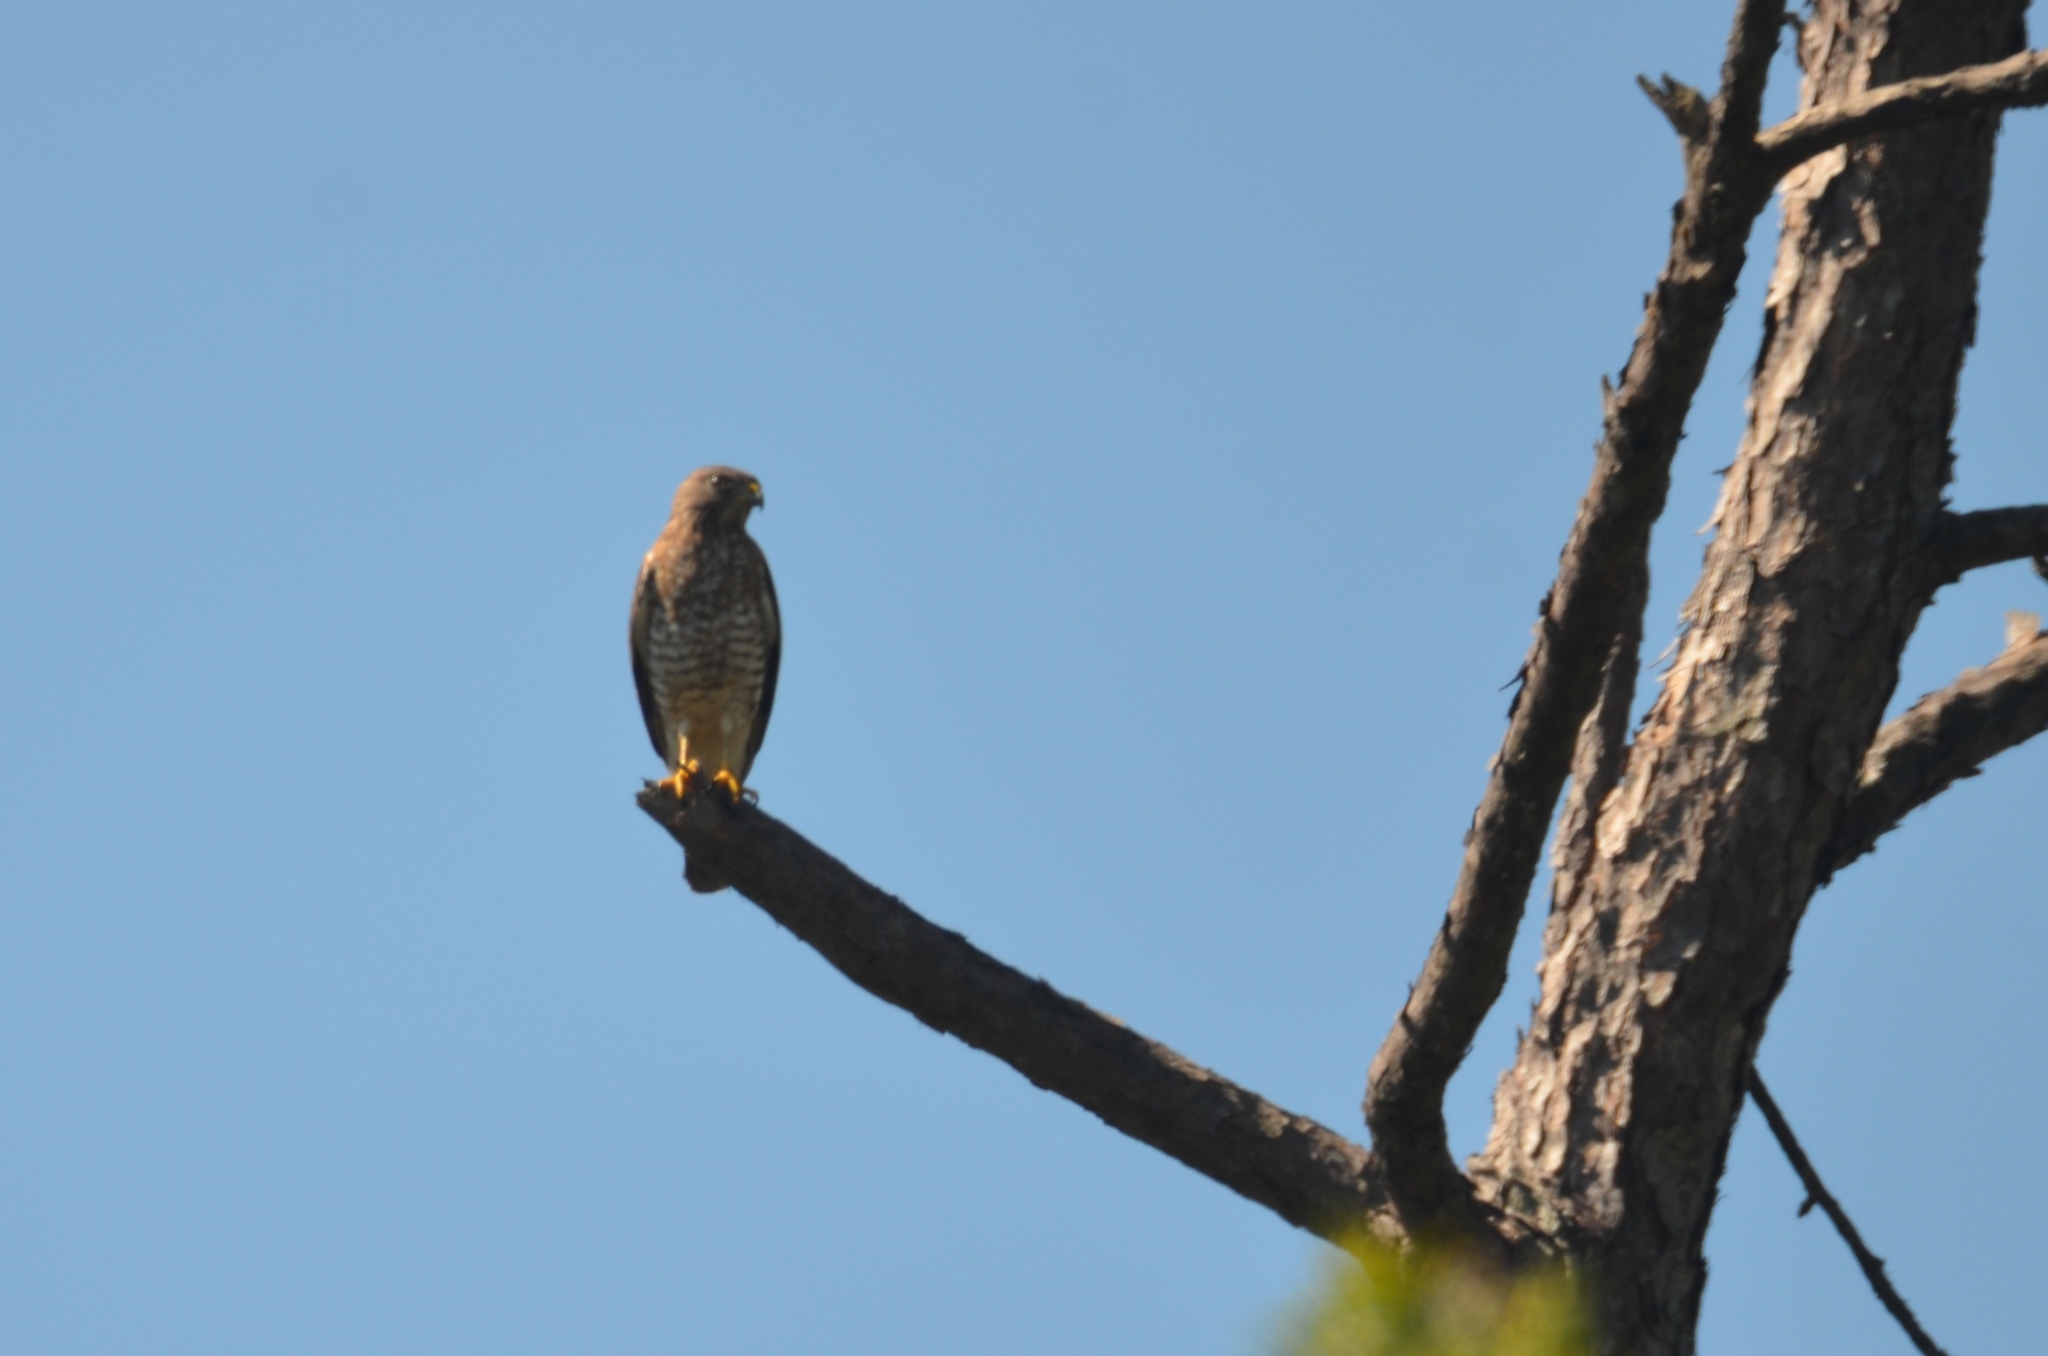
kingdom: Animalia
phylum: Chordata
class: Aves
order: Accipitriformes
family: Accipitridae
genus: Buteo
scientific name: Buteo platypterus
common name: Broad-winged hawk
